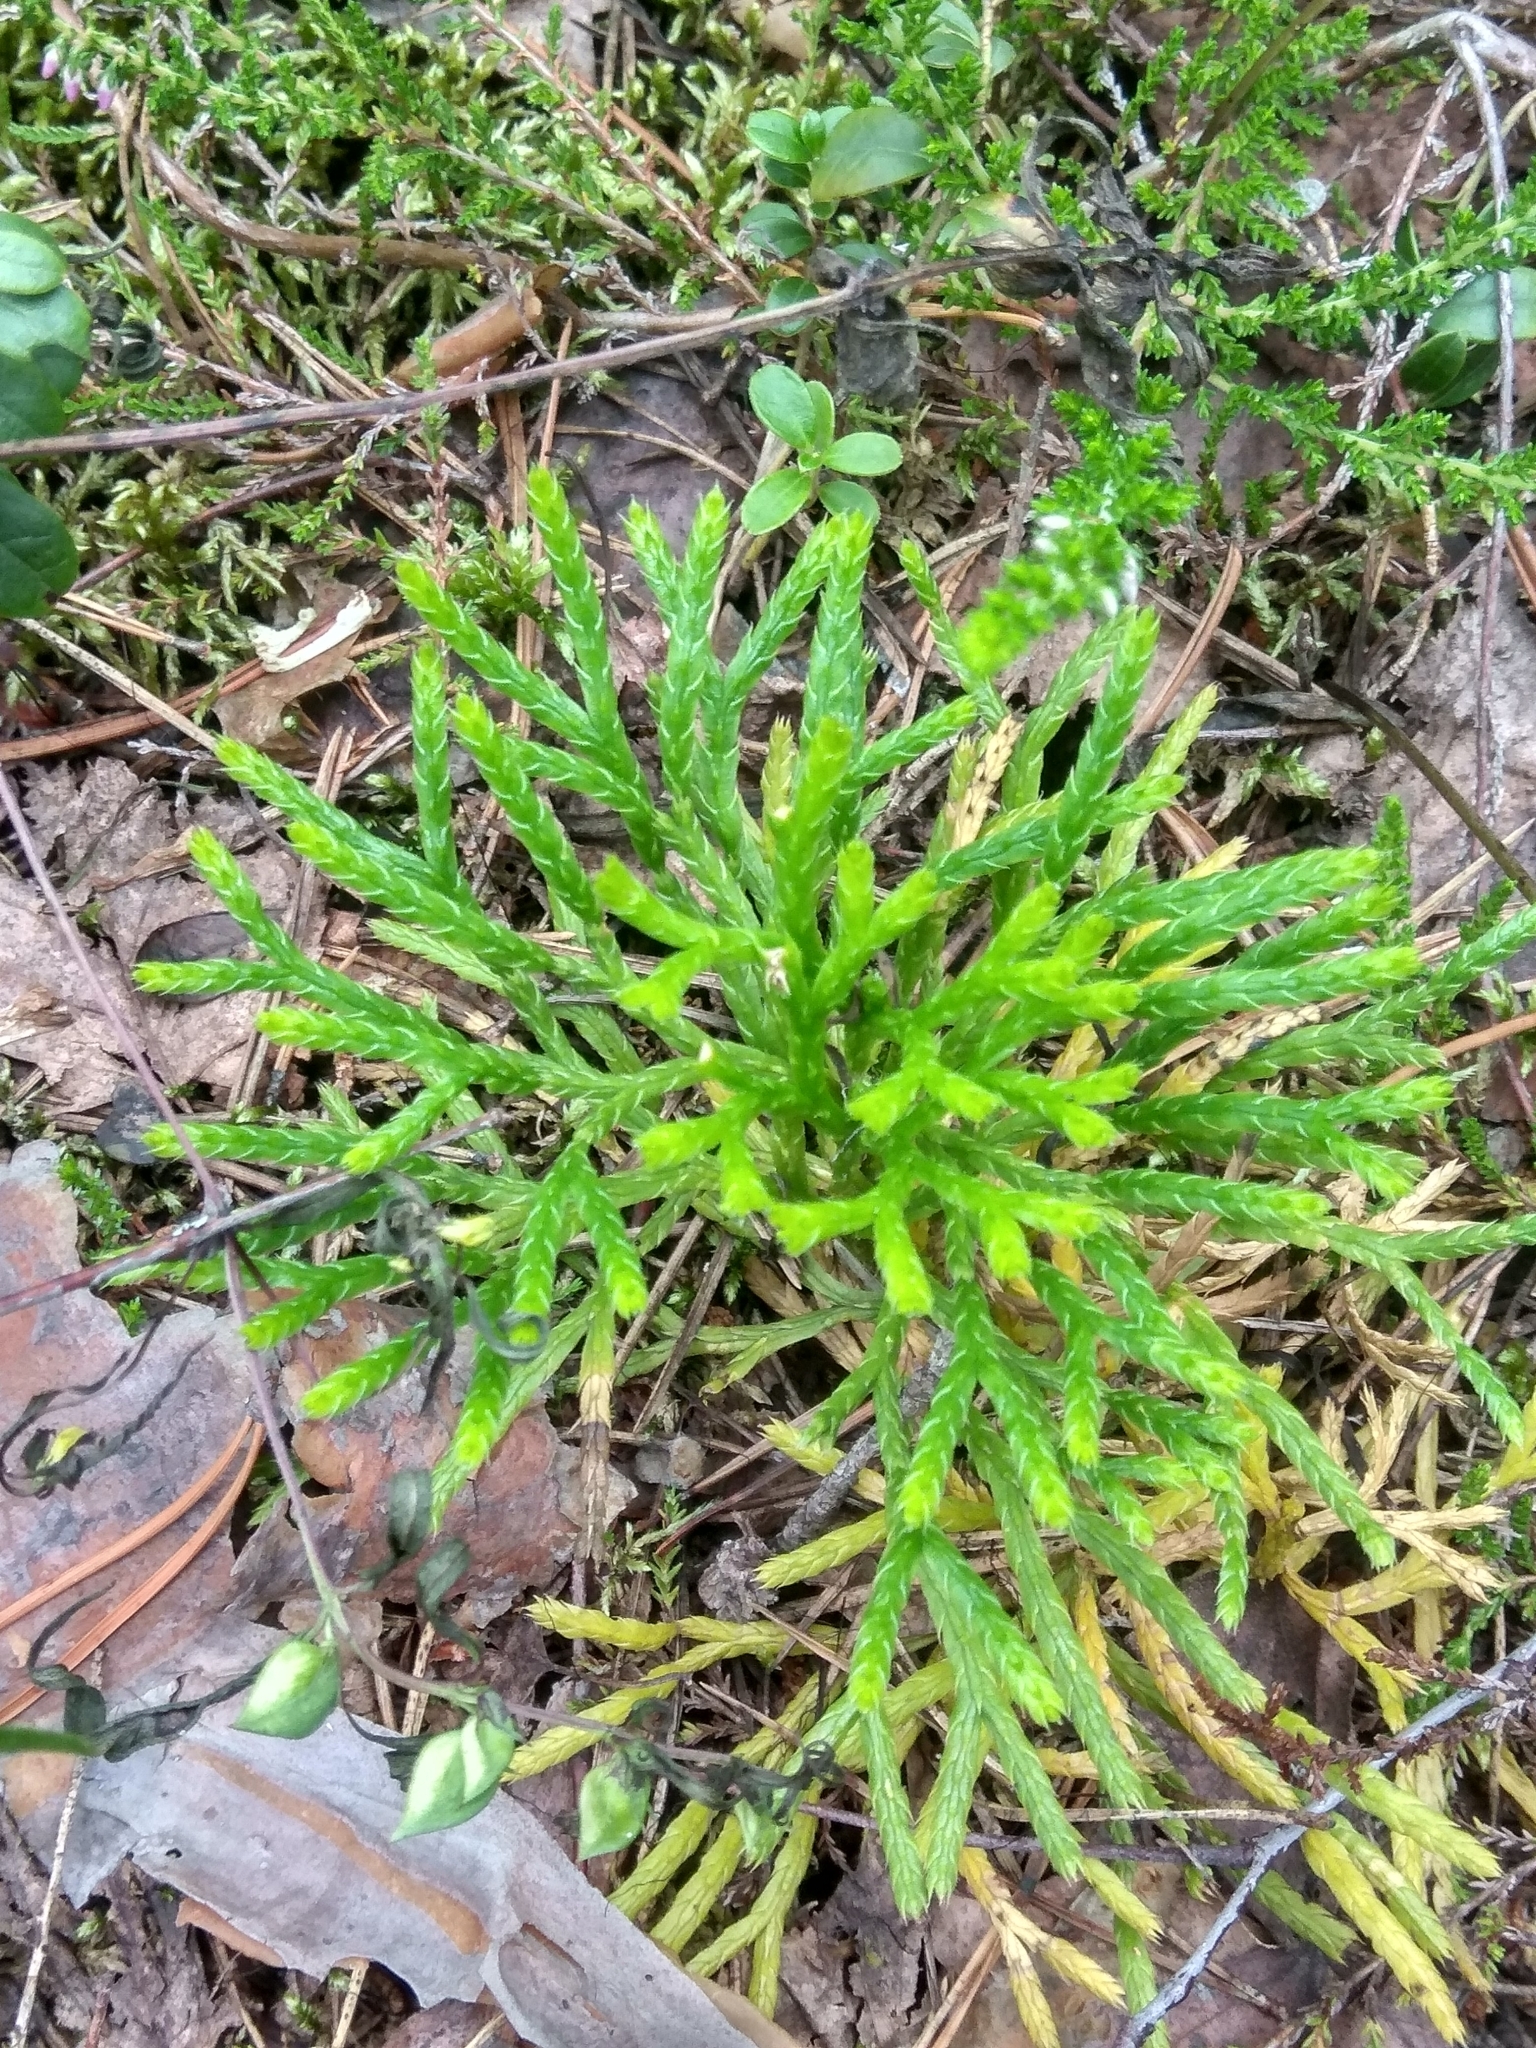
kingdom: Plantae
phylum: Tracheophyta
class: Lycopodiopsida
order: Lycopodiales
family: Lycopodiaceae
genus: Diphasiastrum
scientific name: Diphasiastrum complanatum
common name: Northern running-pine
